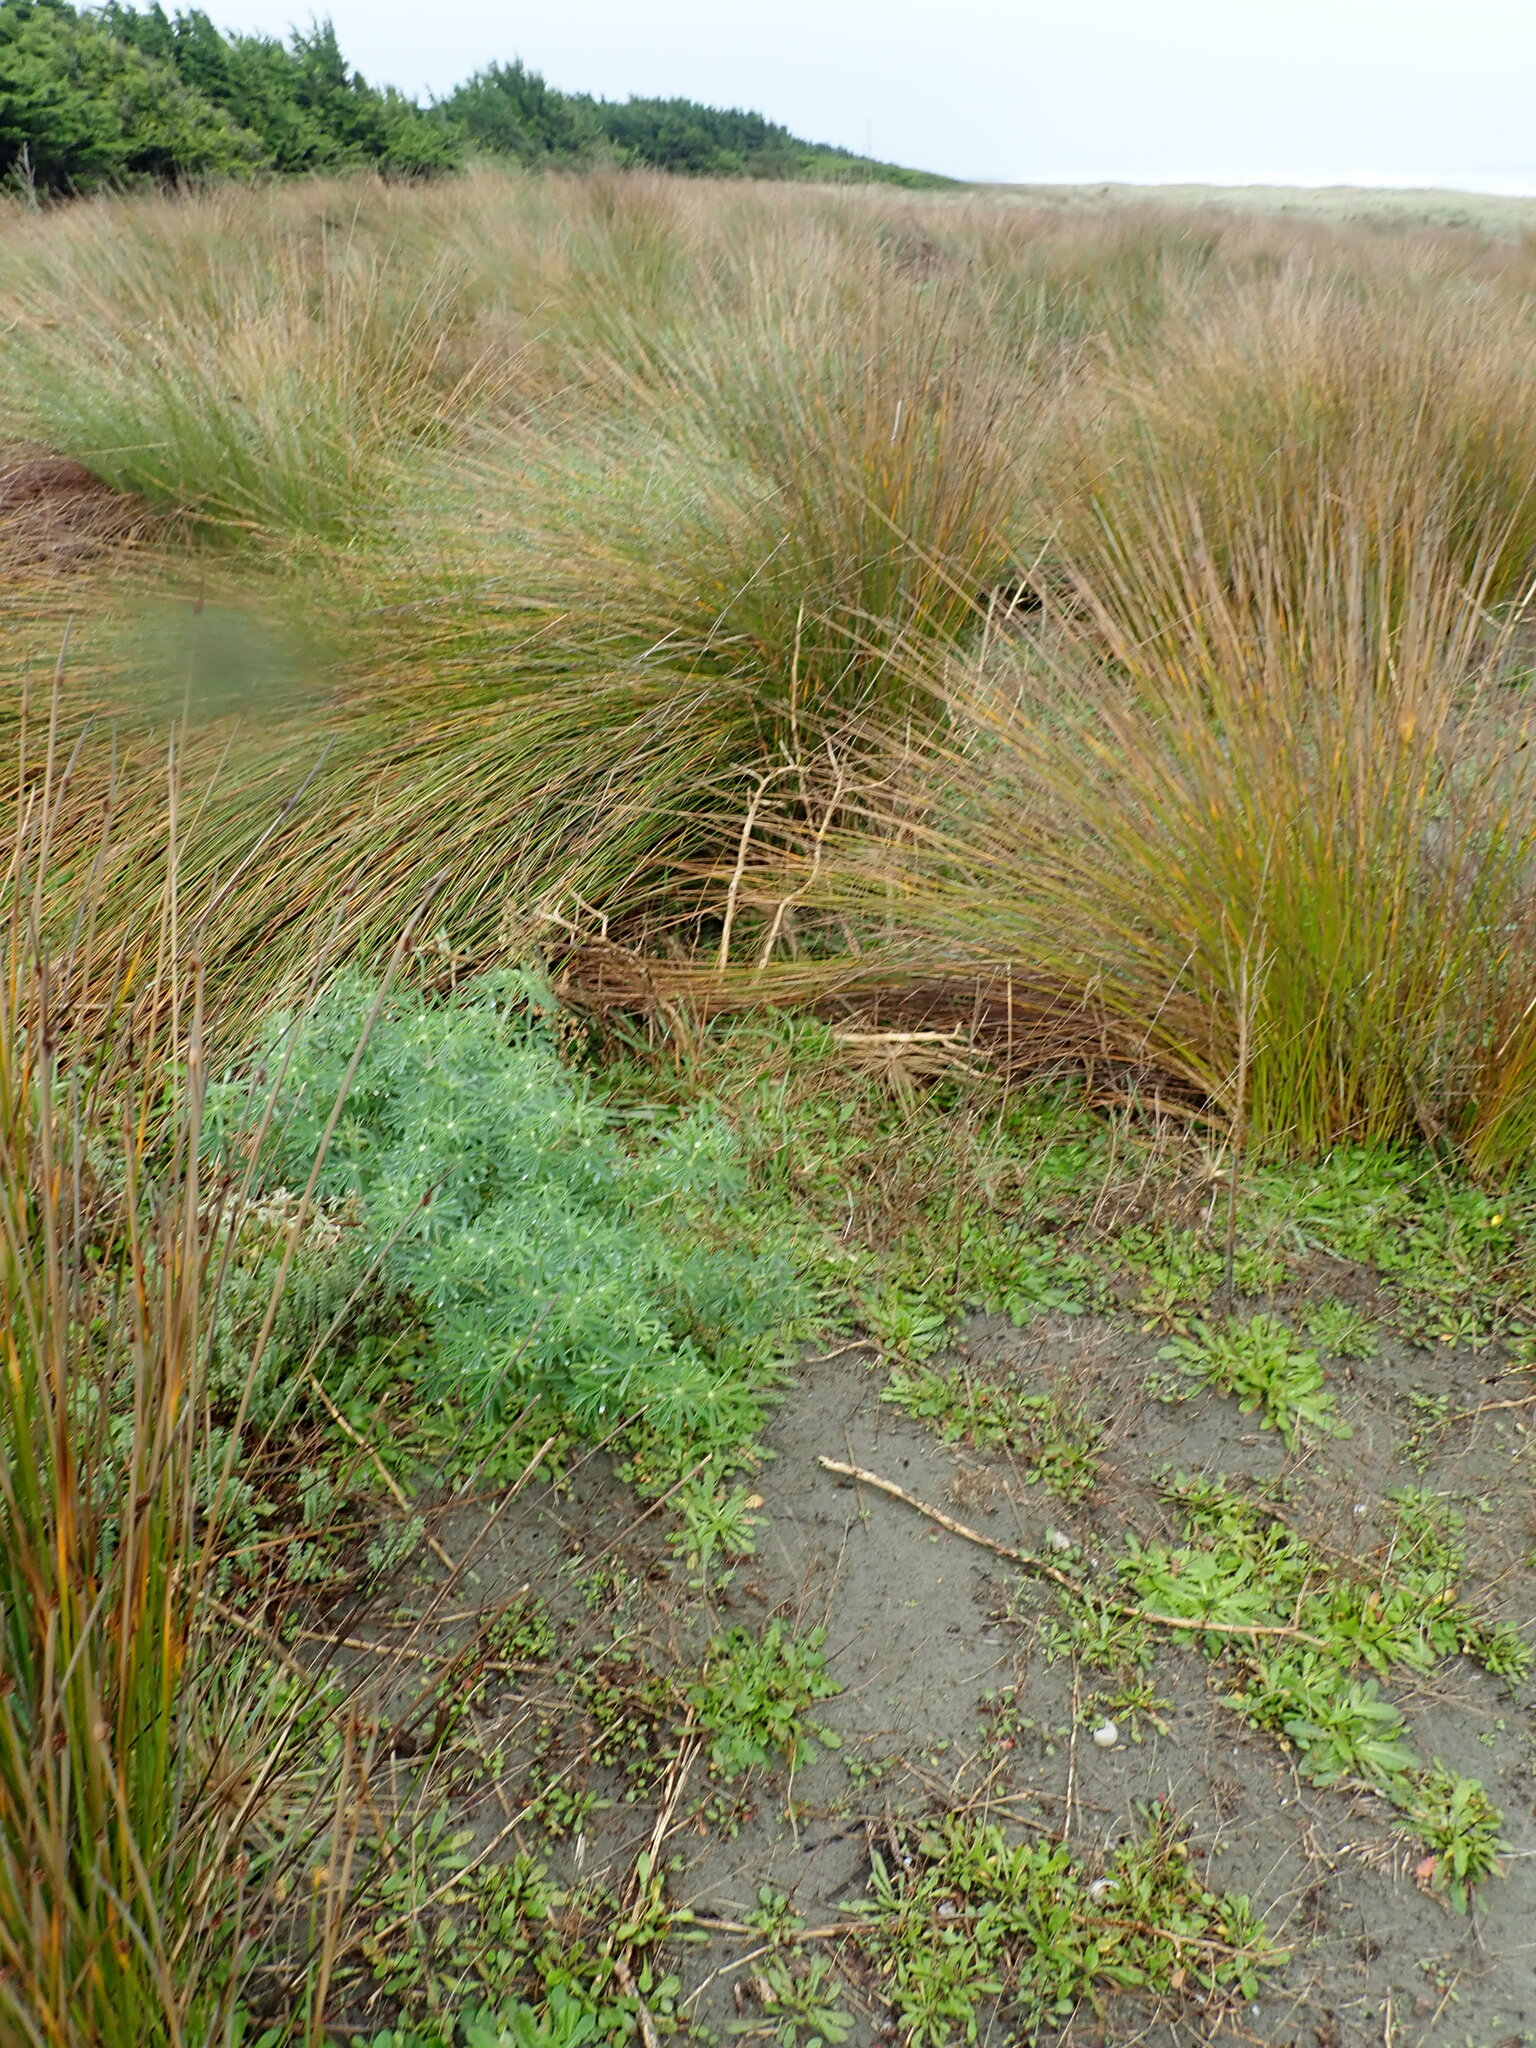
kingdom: Plantae
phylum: Tracheophyta
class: Magnoliopsida
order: Fabales
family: Fabaceae
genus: Lupinus
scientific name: Lupinus arboreus
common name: Yellow bush lupine
